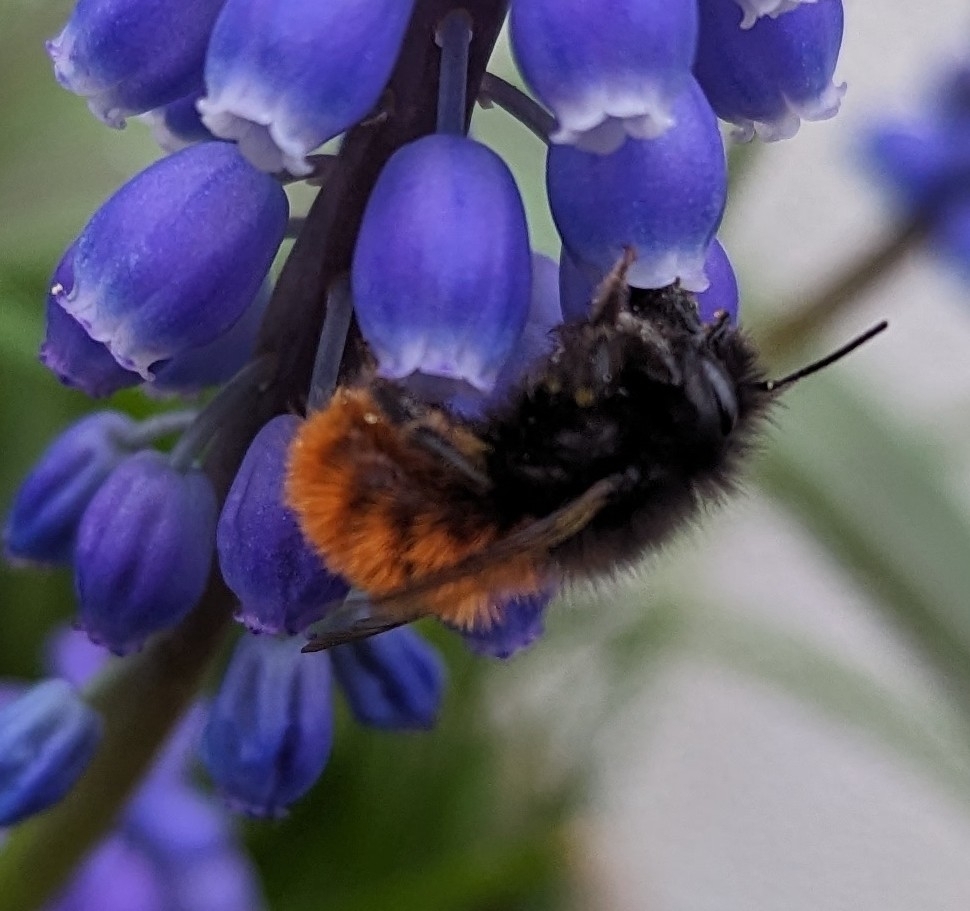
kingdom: Animalia
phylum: Arthropoda
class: Insecta
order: Hymenoptera
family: Megachilidae
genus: Osmia
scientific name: Osmia cornuta
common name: Mason bee
